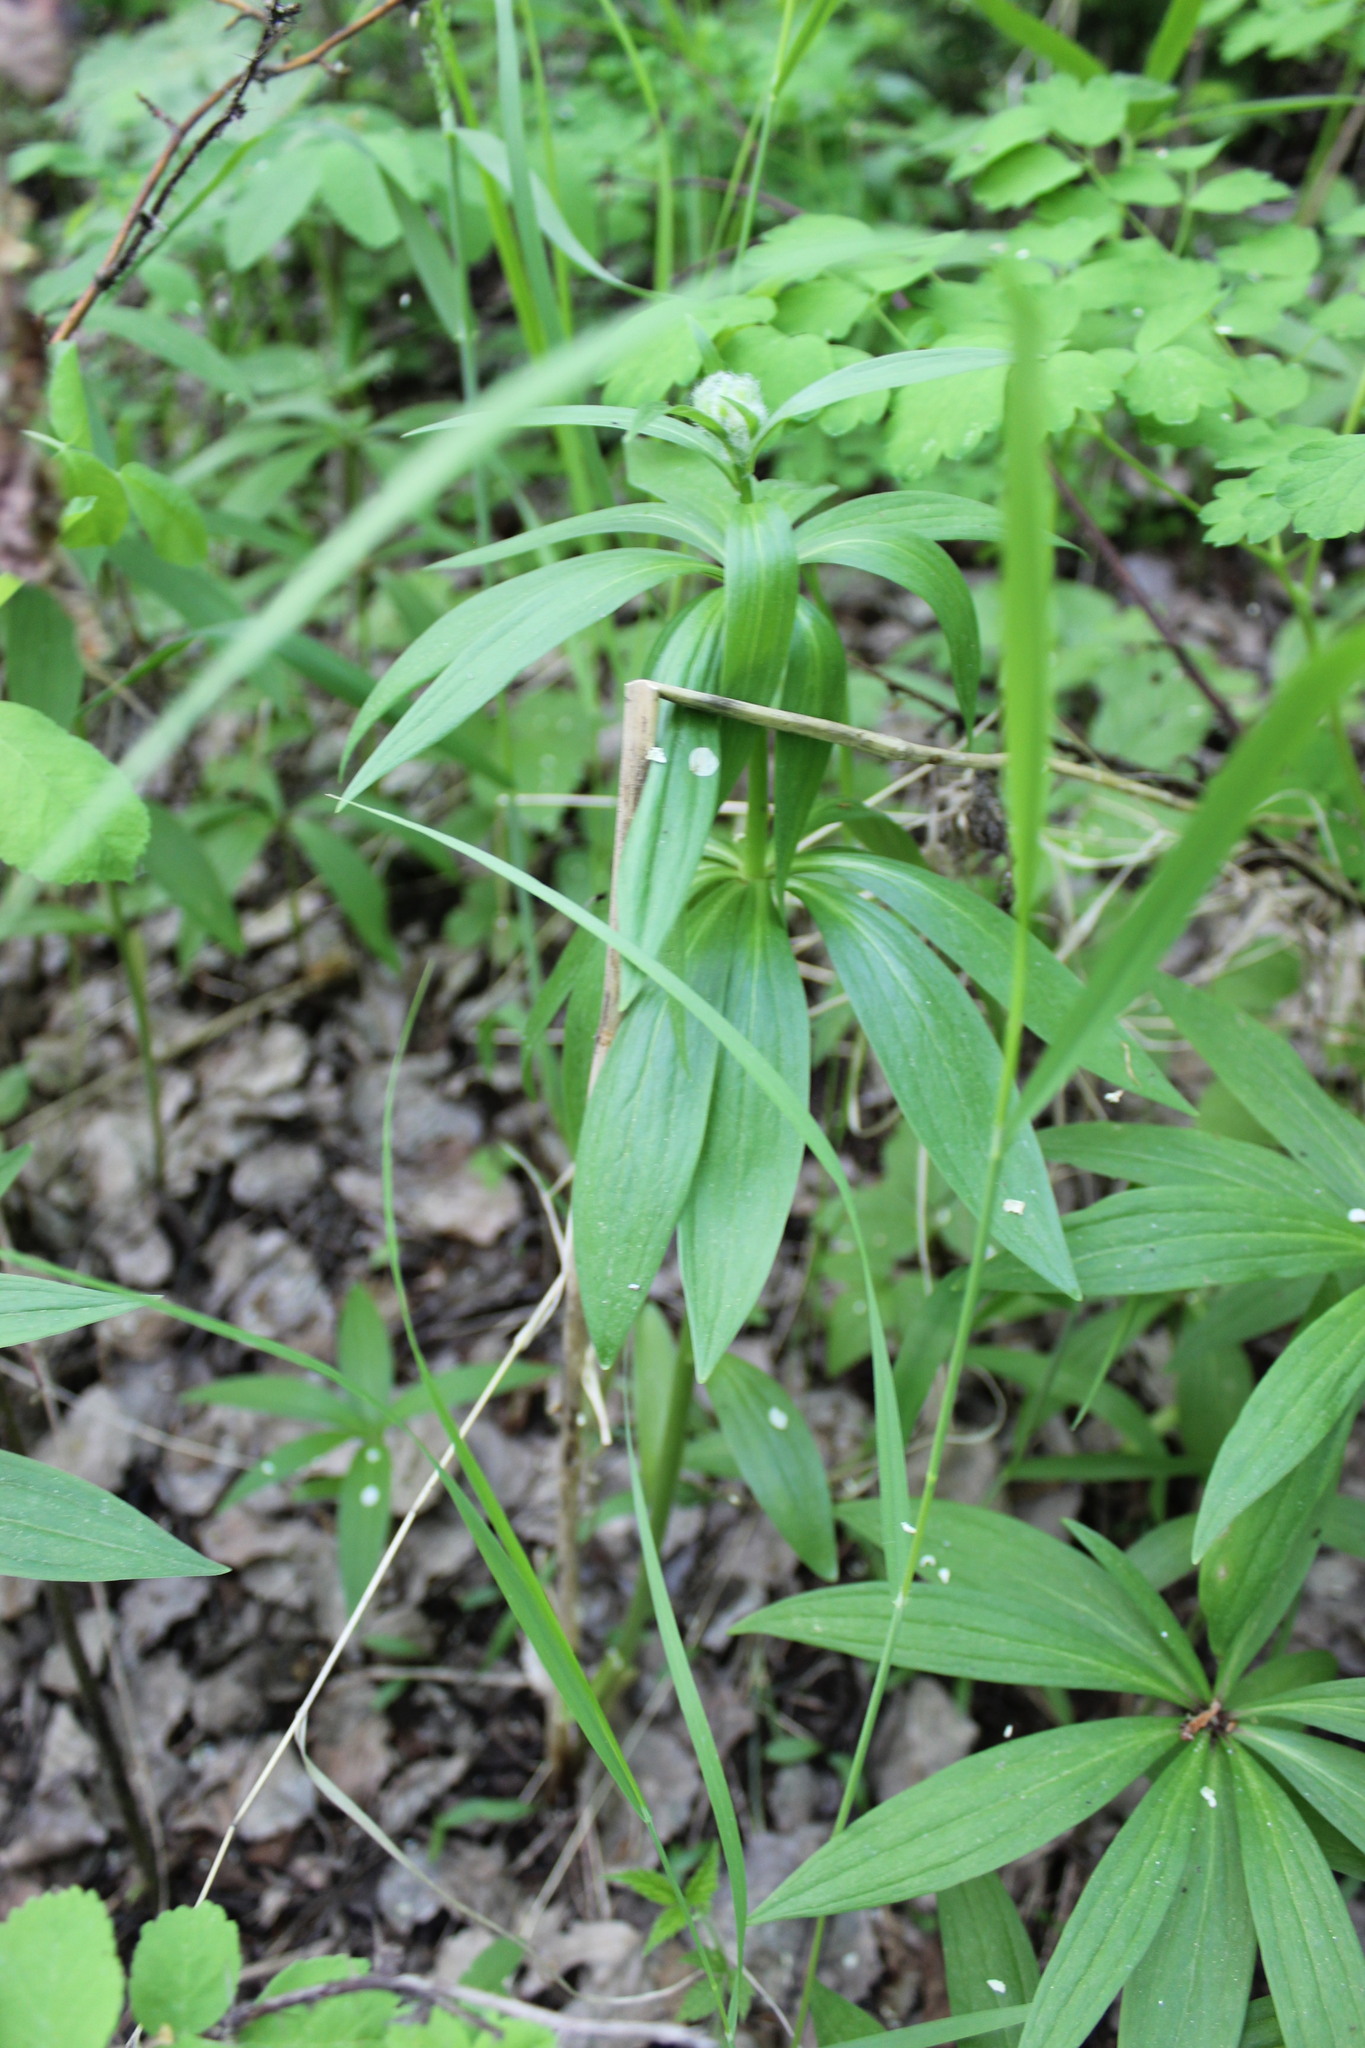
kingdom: Plantae
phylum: Tracheophyta
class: Liliopsida
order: Liliales
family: Liliaceae
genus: Lilium
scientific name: Lilium martagon
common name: Martagon lily
